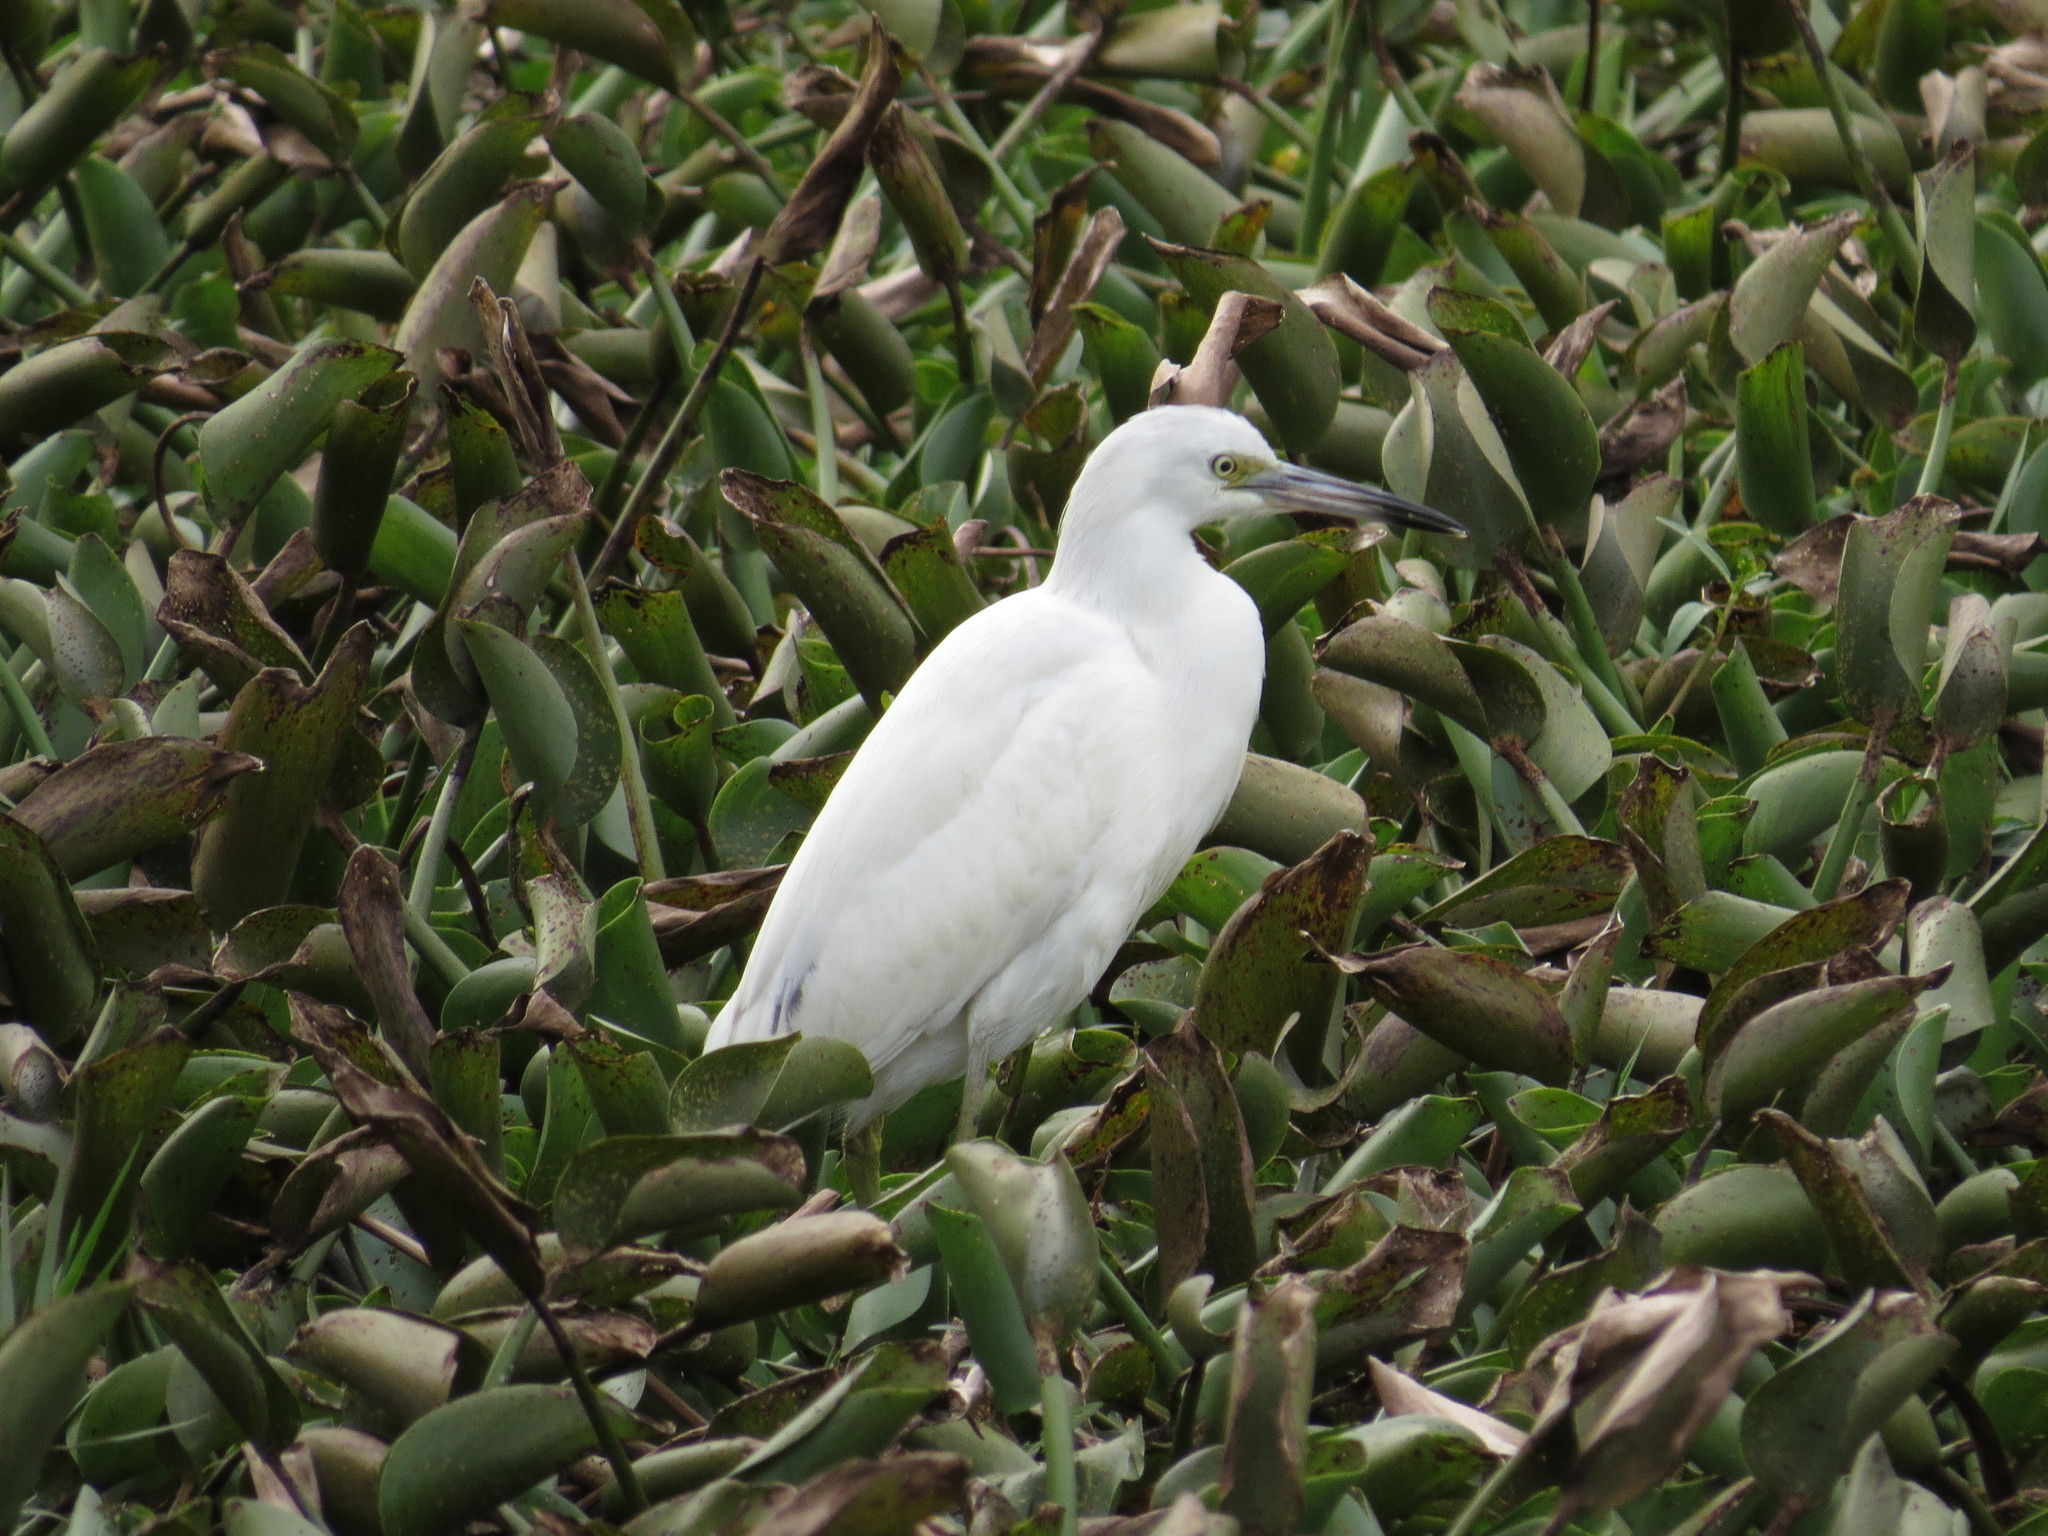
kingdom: Animalia
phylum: Chordata
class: Aves
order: Pelecaniformes
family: Ardeidae
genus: Egretta
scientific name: Egretta caerulea
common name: Little blue heron
